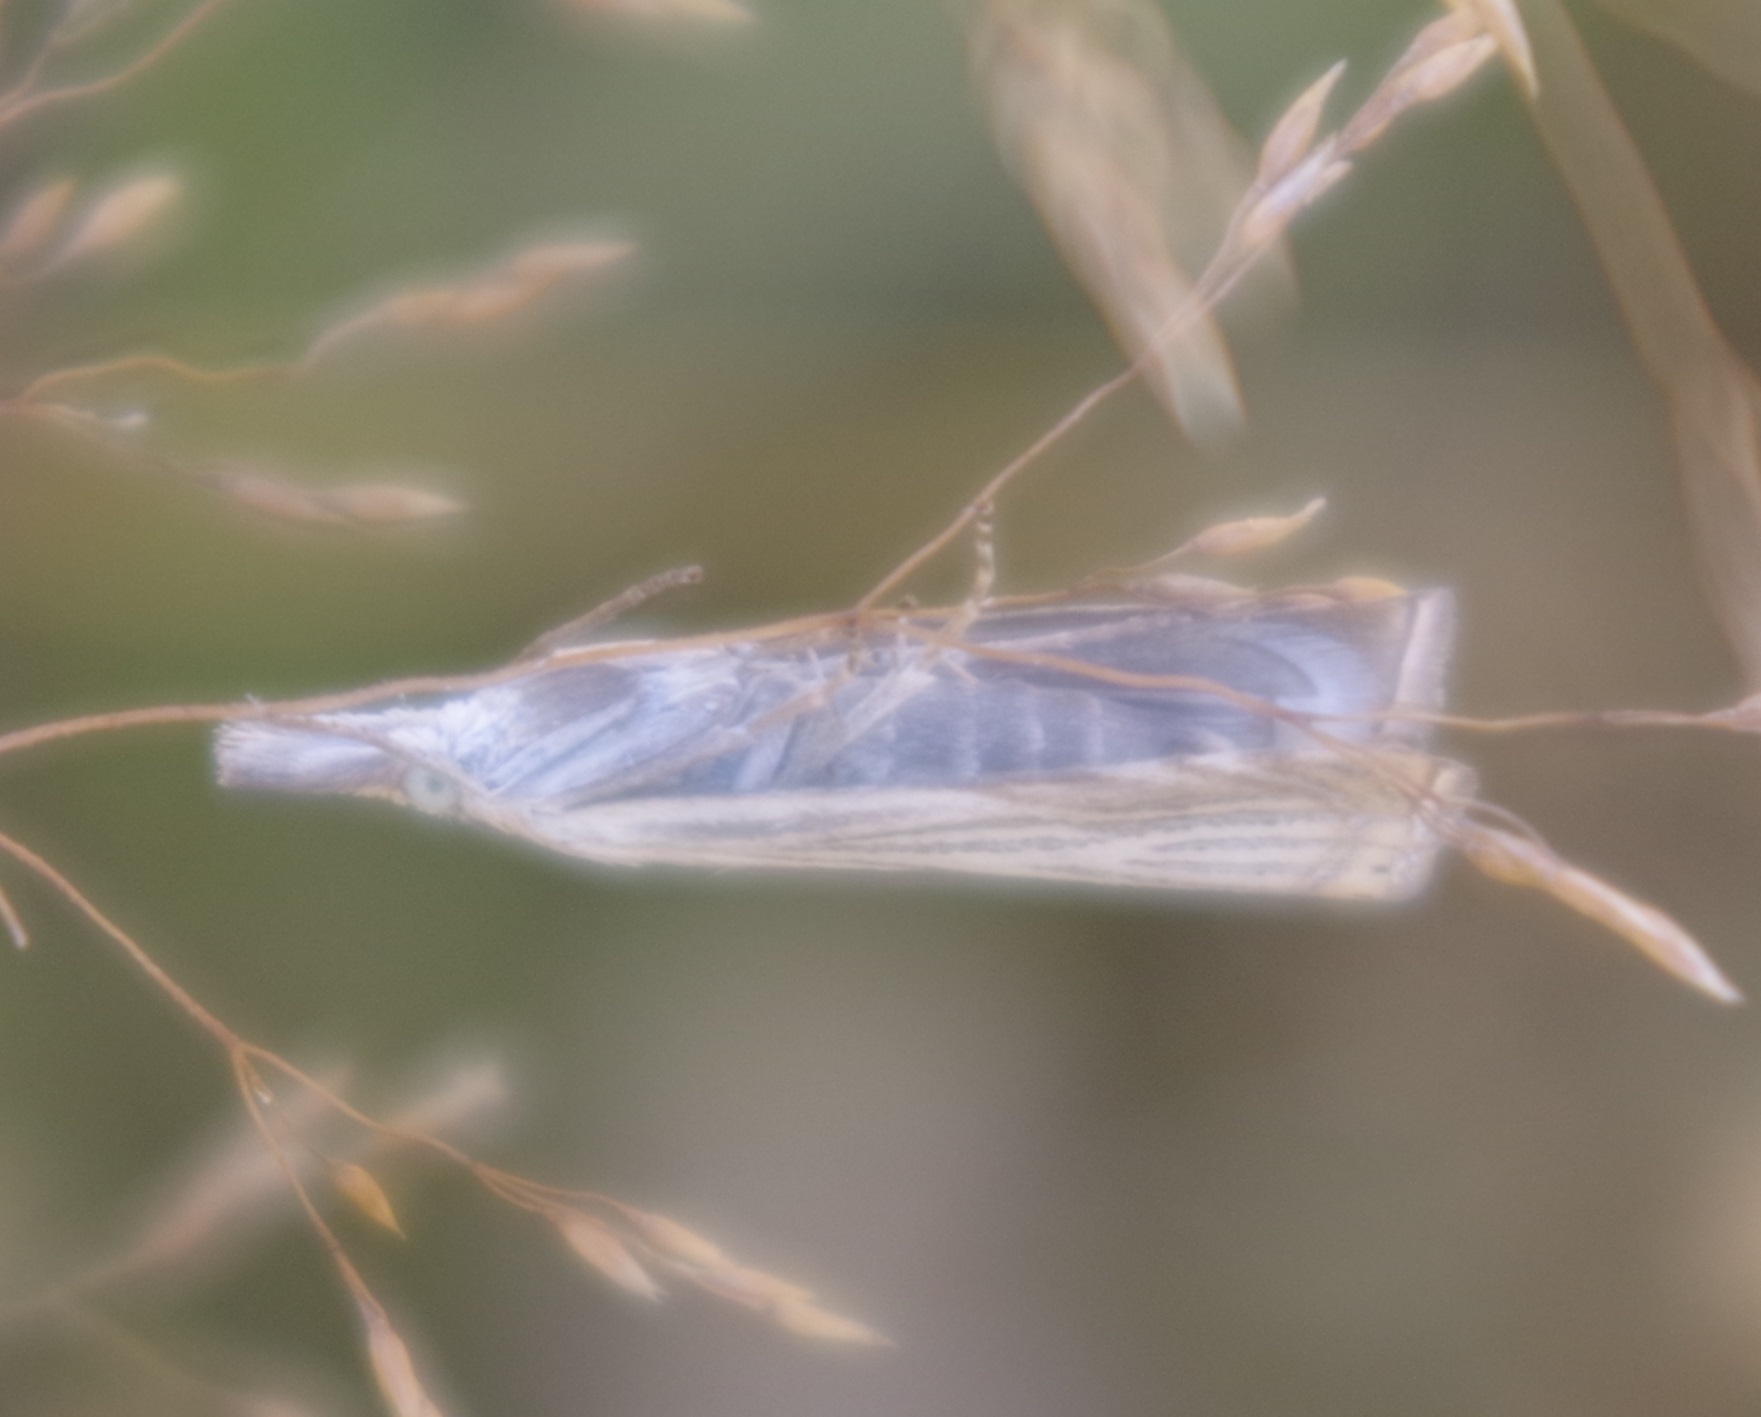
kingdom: Animalia
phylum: Arthropoda
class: Insecta
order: Lepidoptera
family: Crambidae
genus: Chrysoteuchia
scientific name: Chrysoteuchia culmella
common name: Garden grass-veneer
